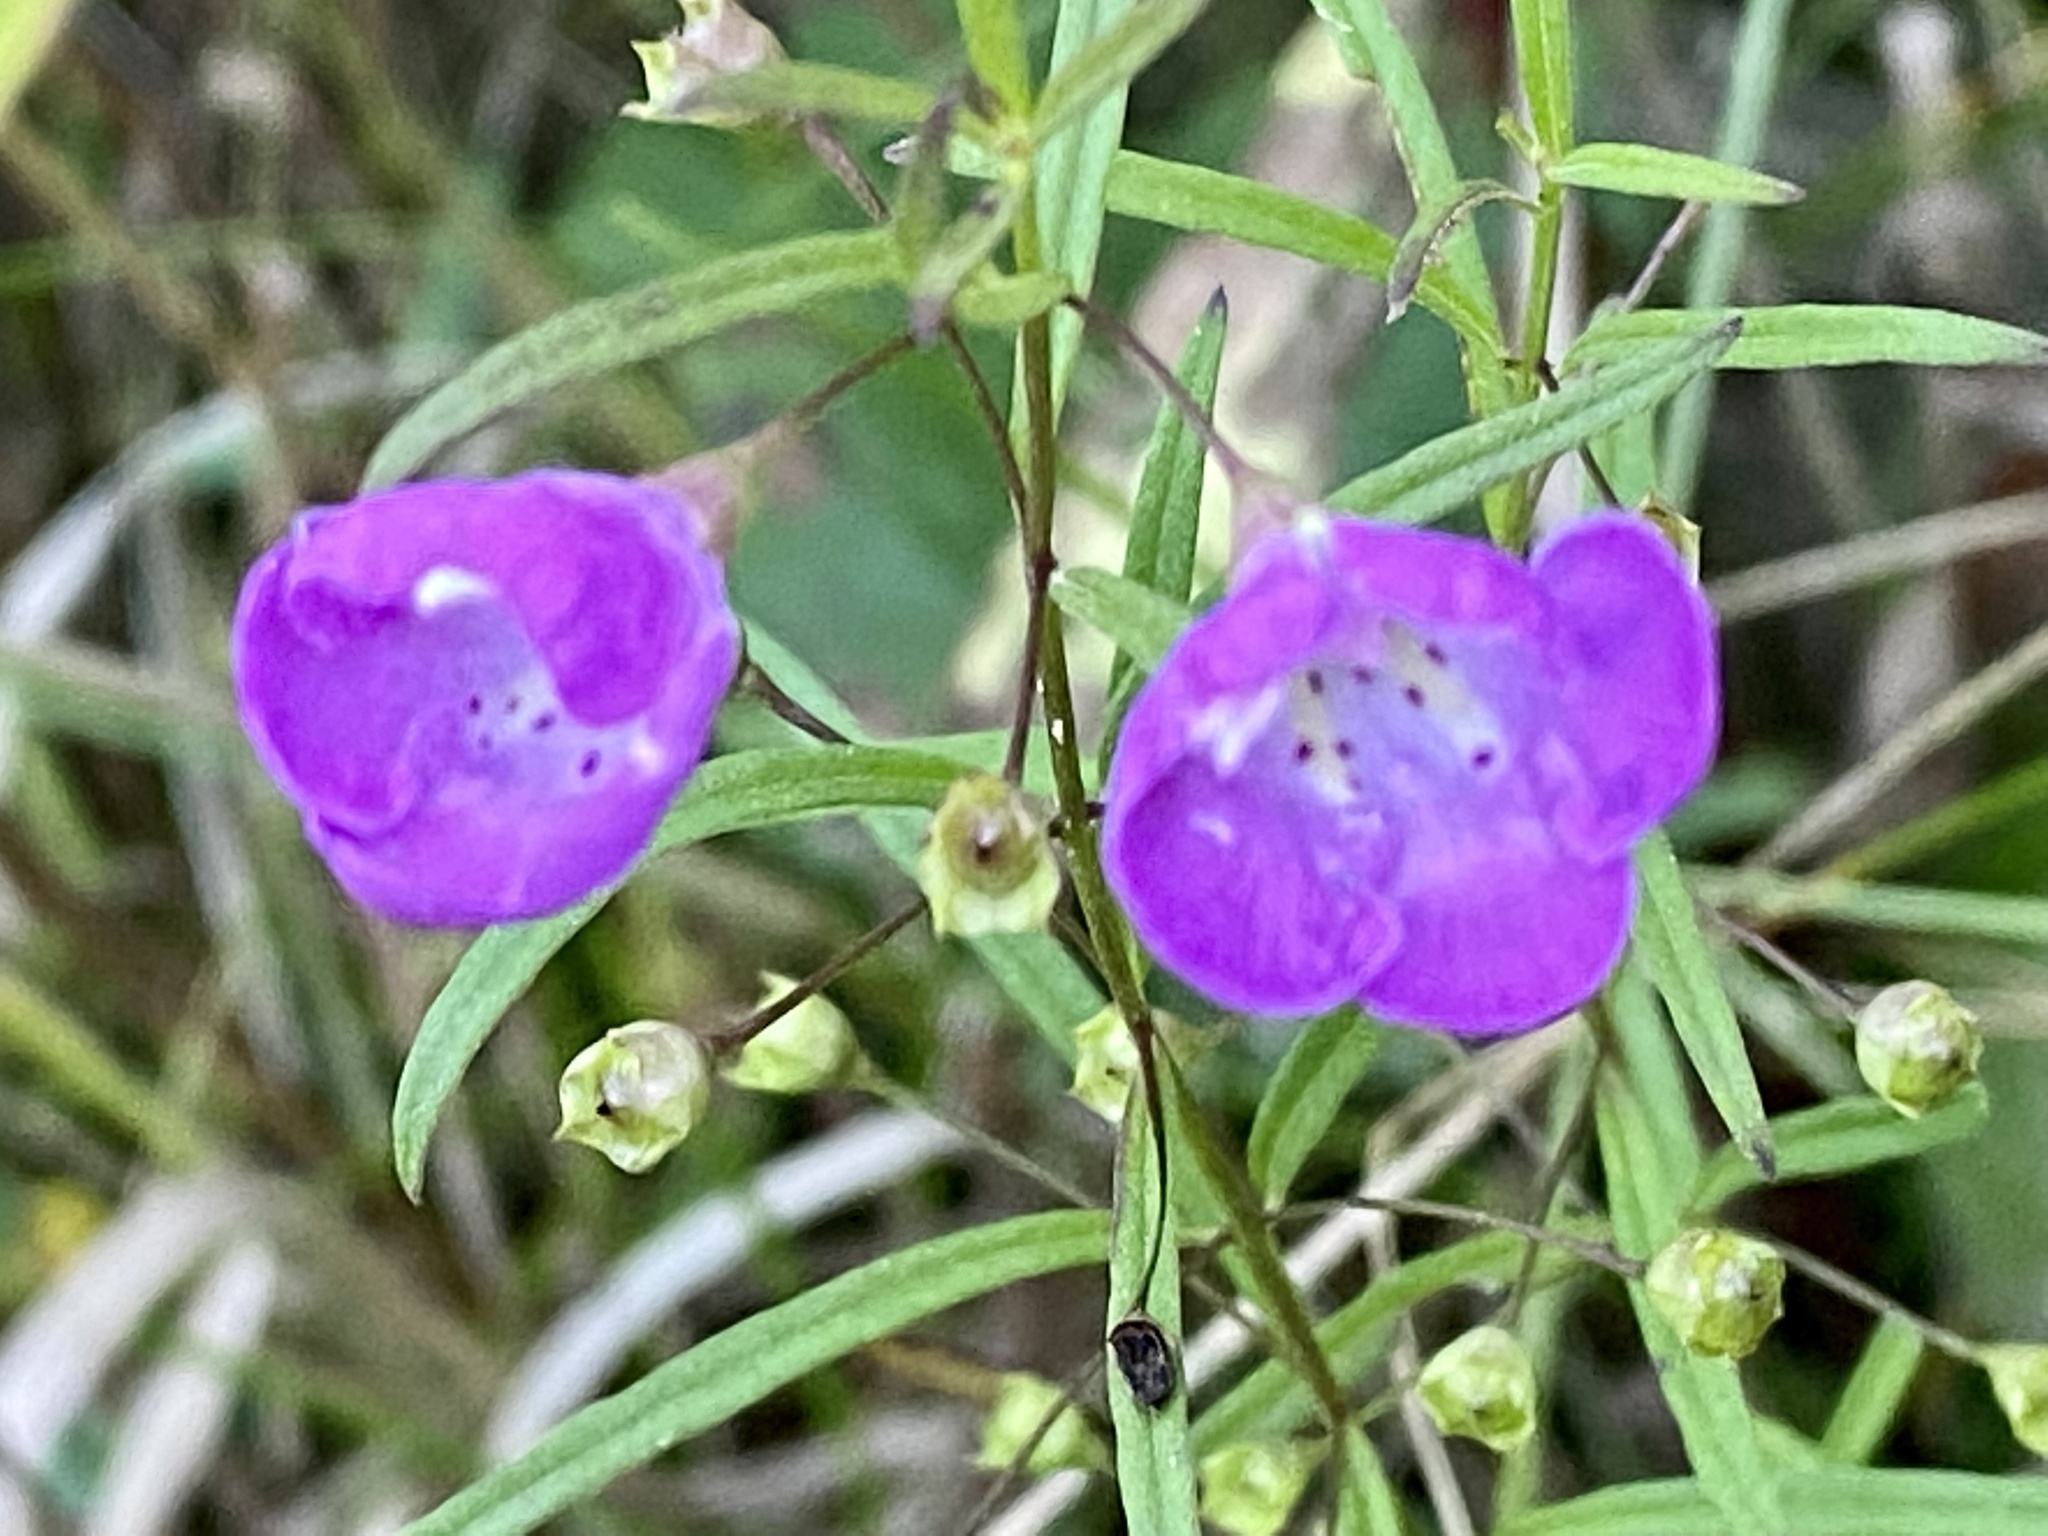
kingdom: Plantae
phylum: Tracheophyta
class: Magnoliopsida
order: Lamiales
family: Orobanchaceae
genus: Agalinis
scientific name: Agalinis purpurea
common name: Purple false foxglove
